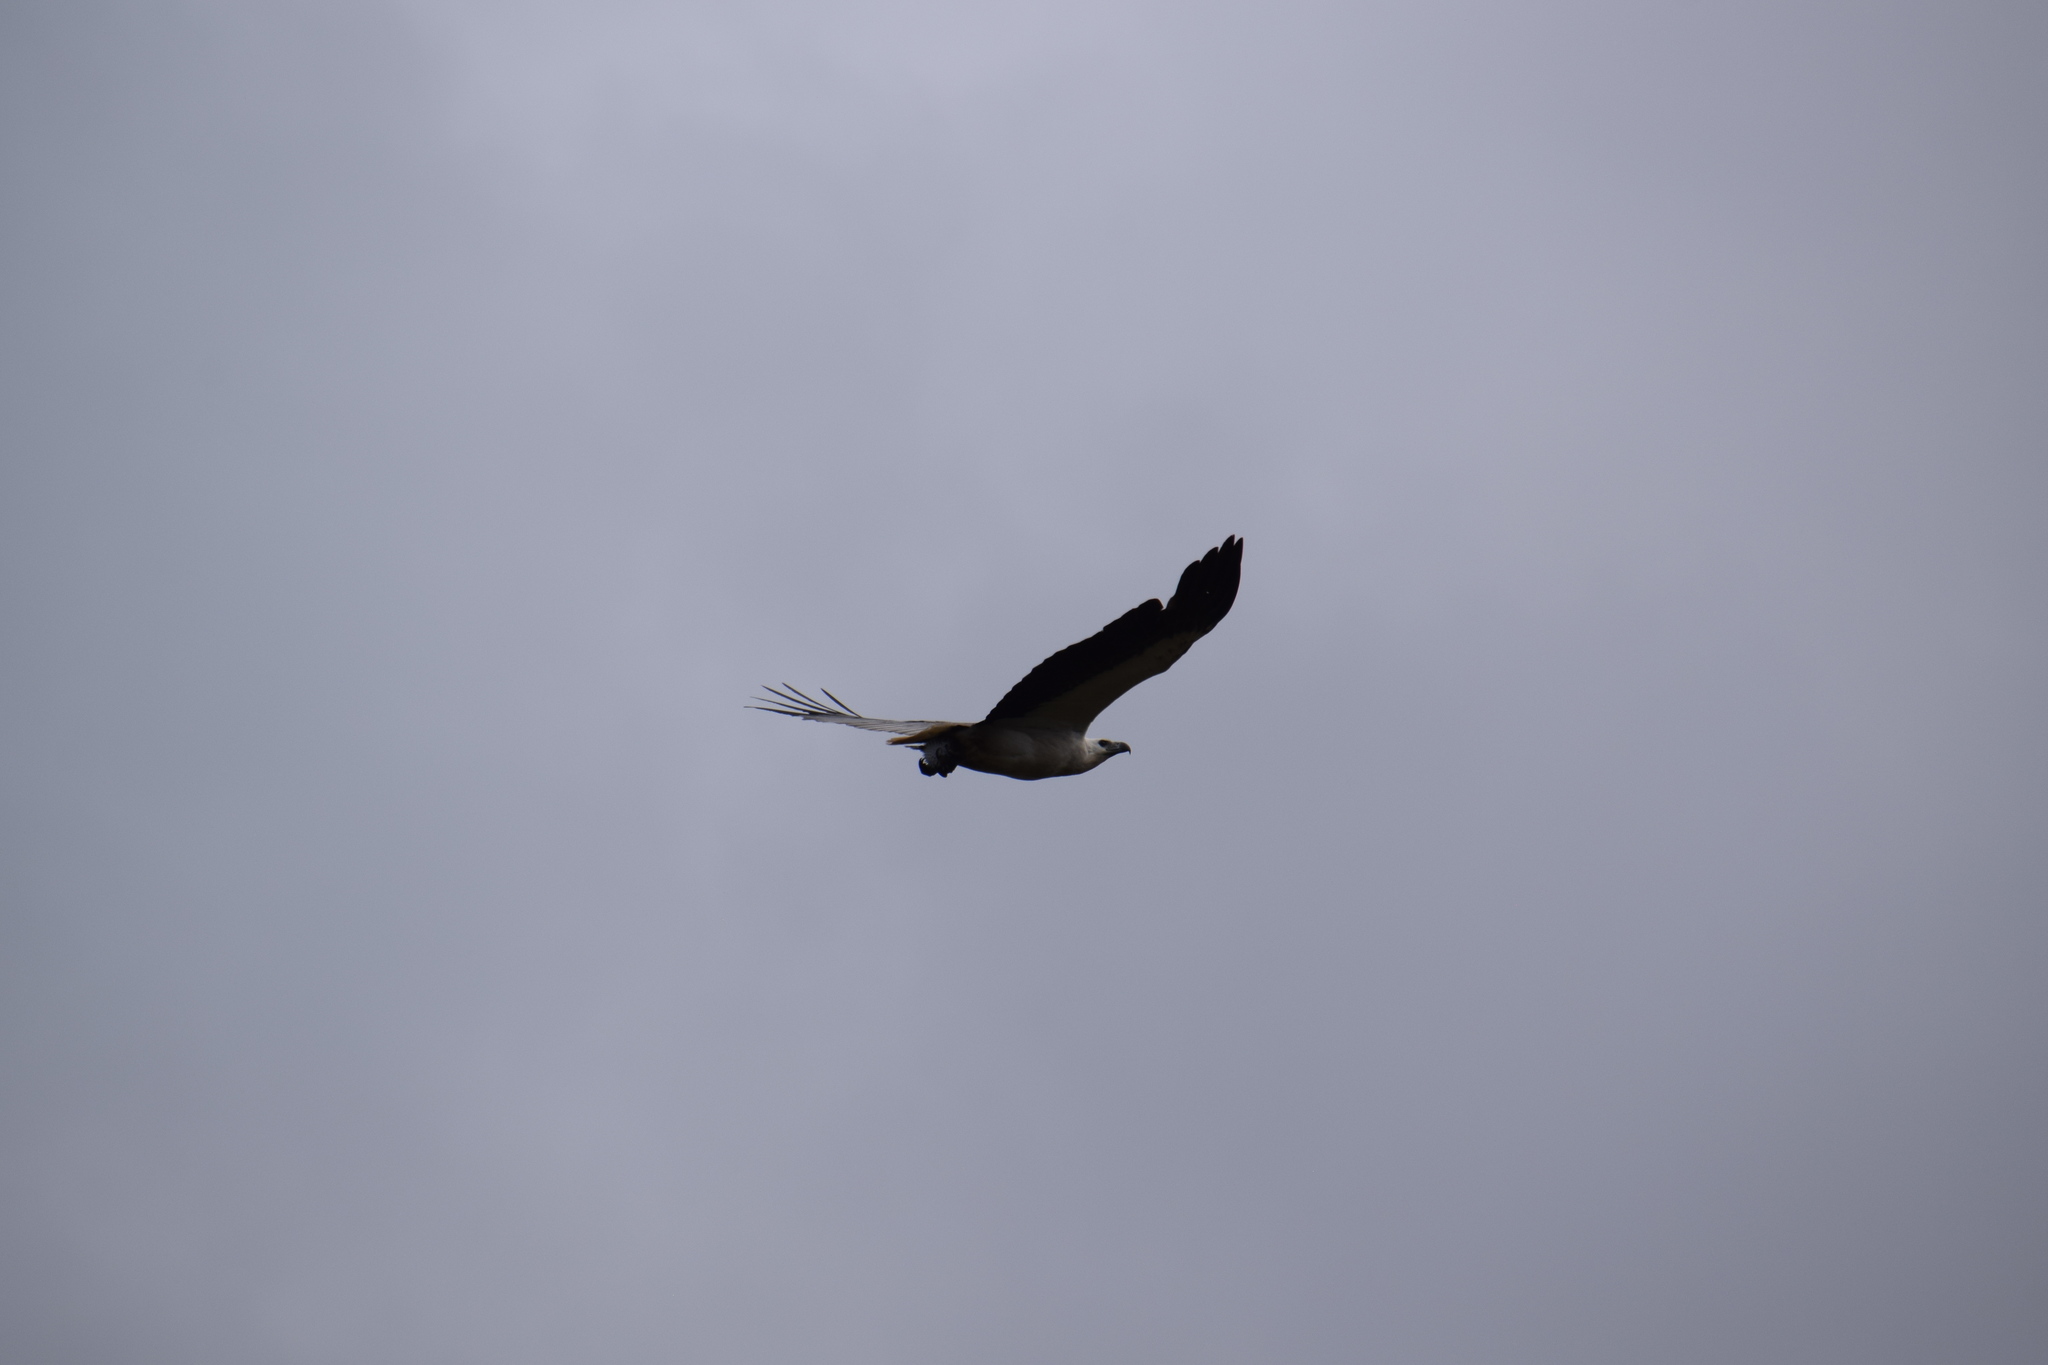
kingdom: Animalia
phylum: Chordata
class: Aves
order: Accipitriformes
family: Accipitridae
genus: Haliaeetus
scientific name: Haliaeetus leucogaster
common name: White-bellied sea eagle
